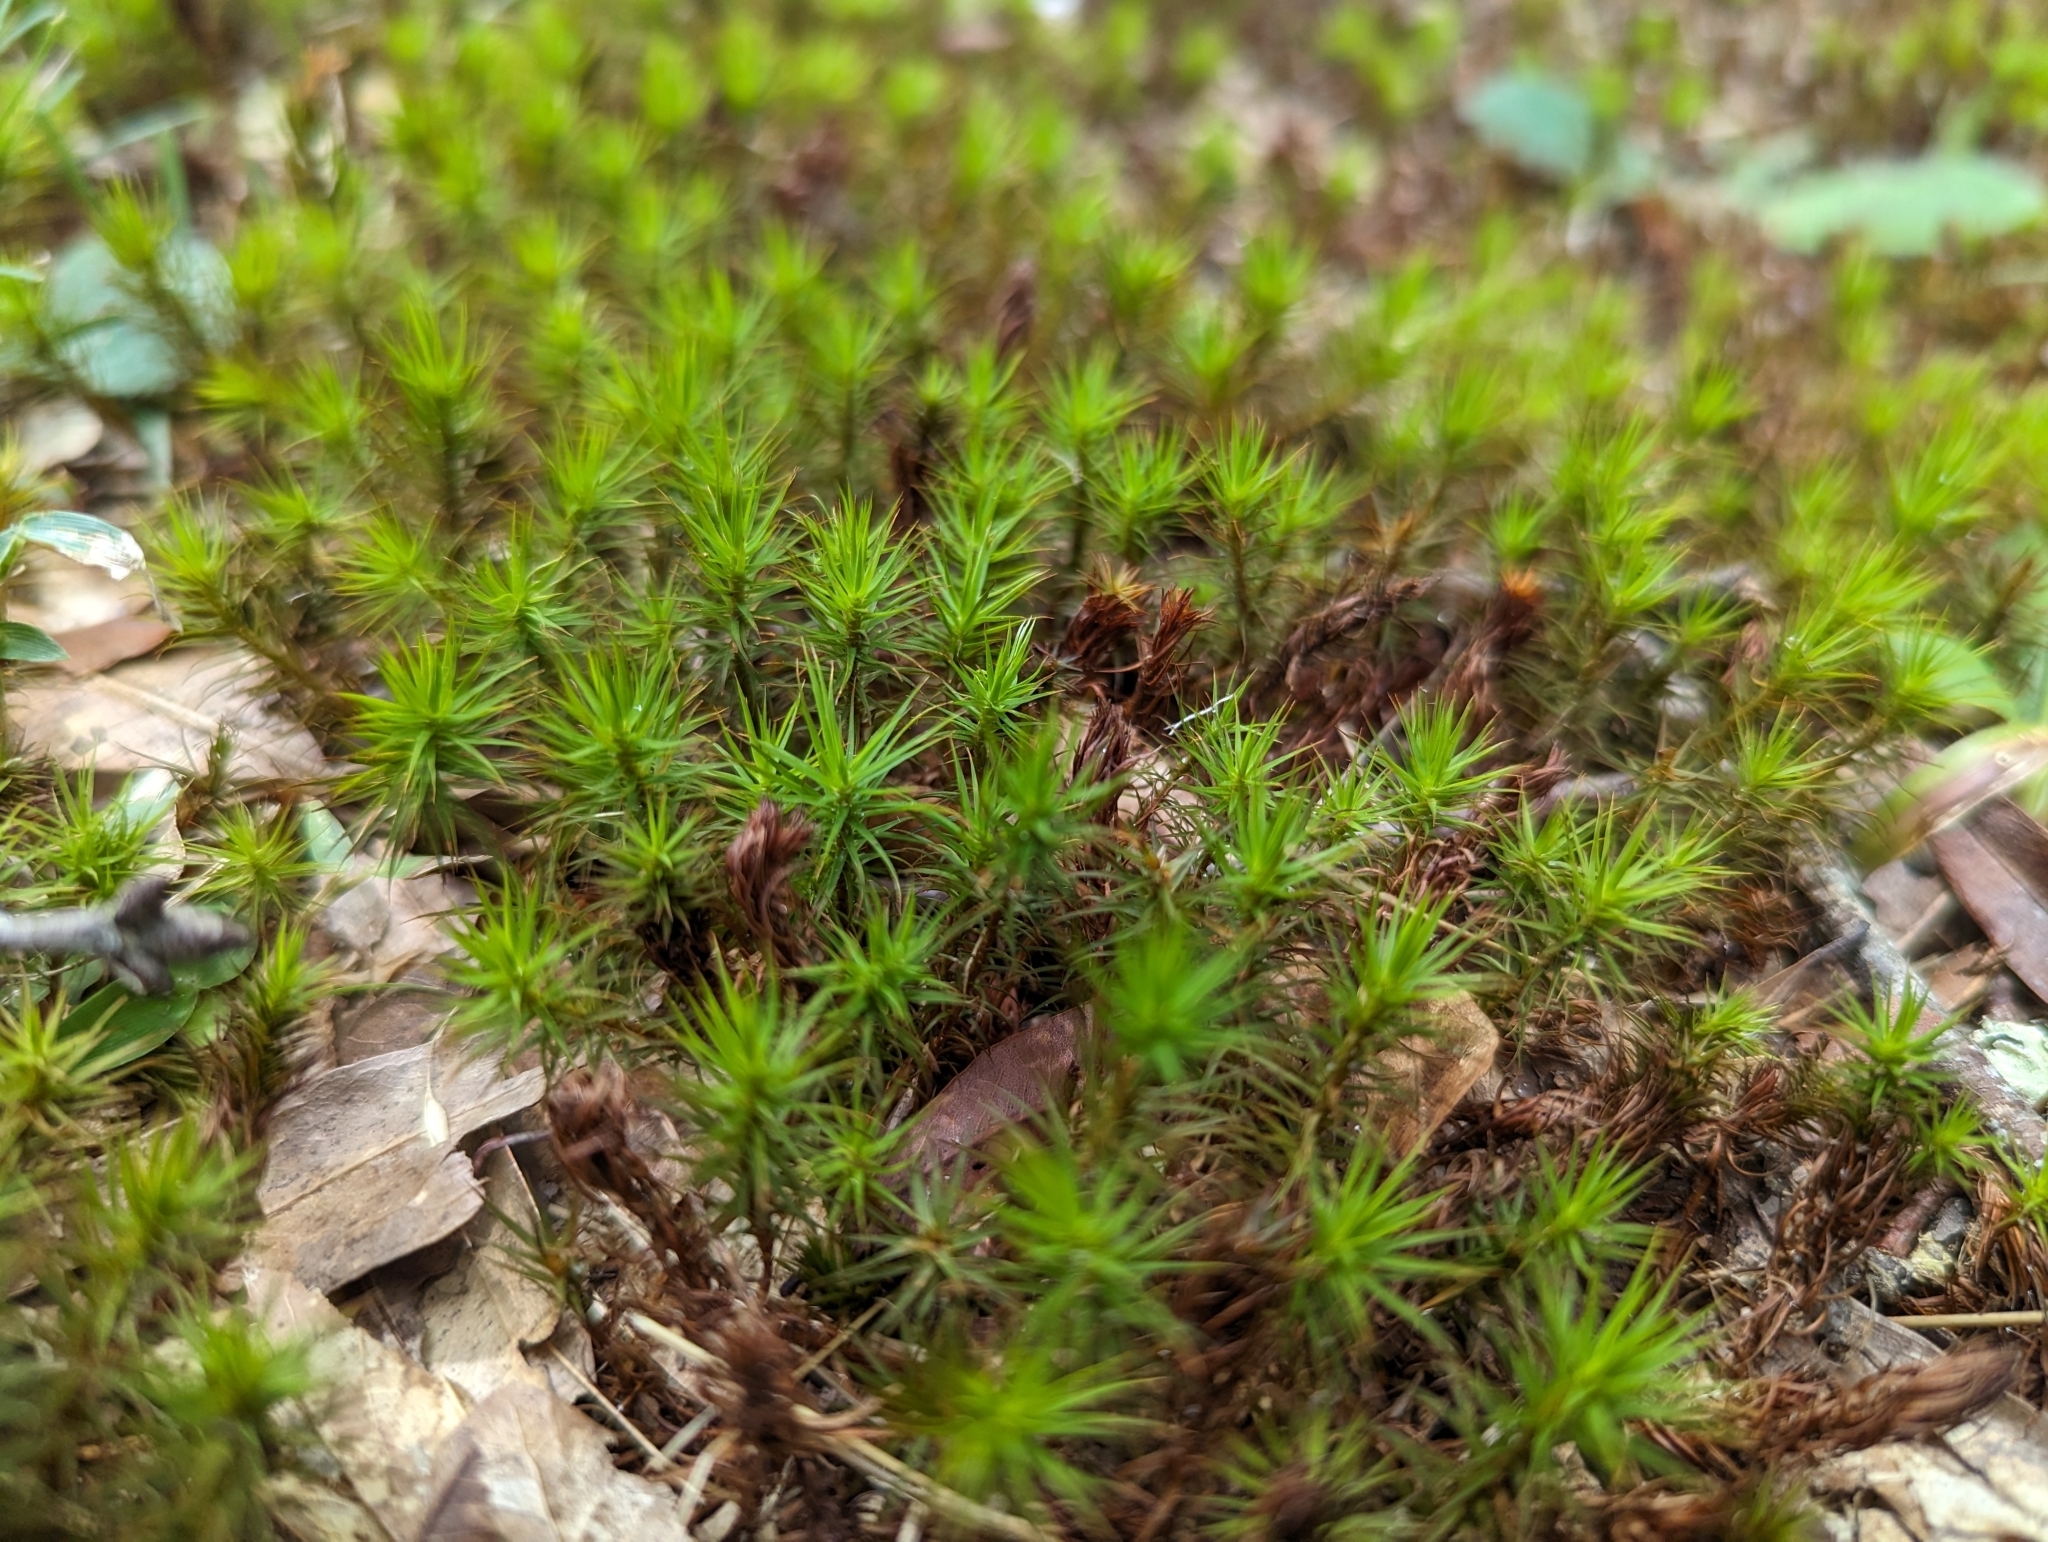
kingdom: Plantae
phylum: Bryophyta
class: Polytrichopsida
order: Polytrichales
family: Polytrichaceae
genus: Polytrichum
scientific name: Polytrichum commune
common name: Common haircap
